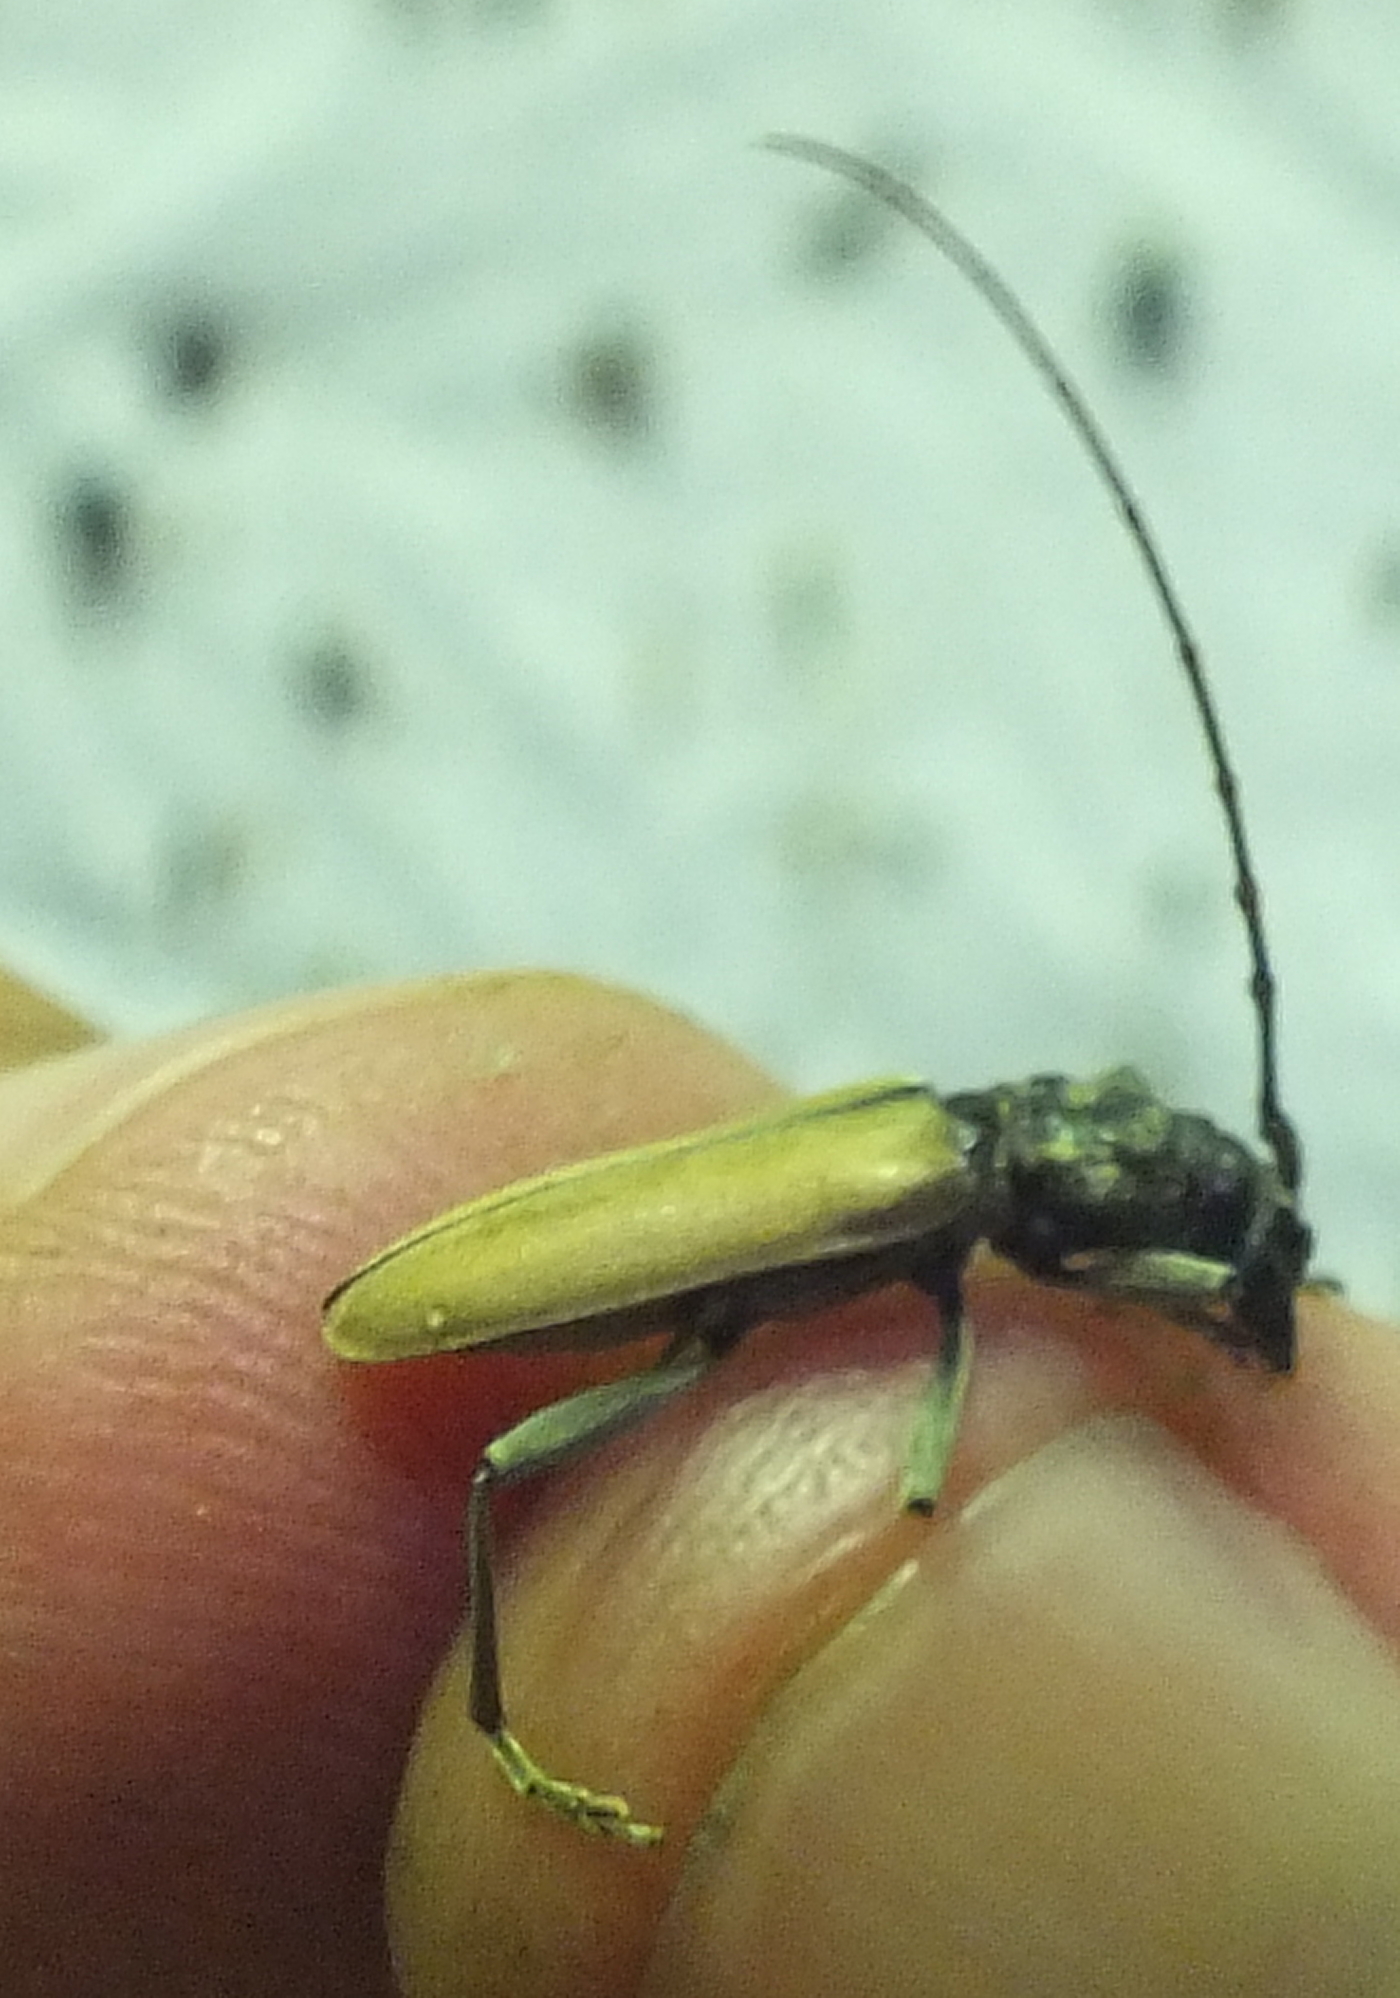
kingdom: Animalia
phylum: Arthropoda
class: Insecta
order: Coleoptera
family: Cerambycidae
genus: Derolus
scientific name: Derolus brunneipennis
